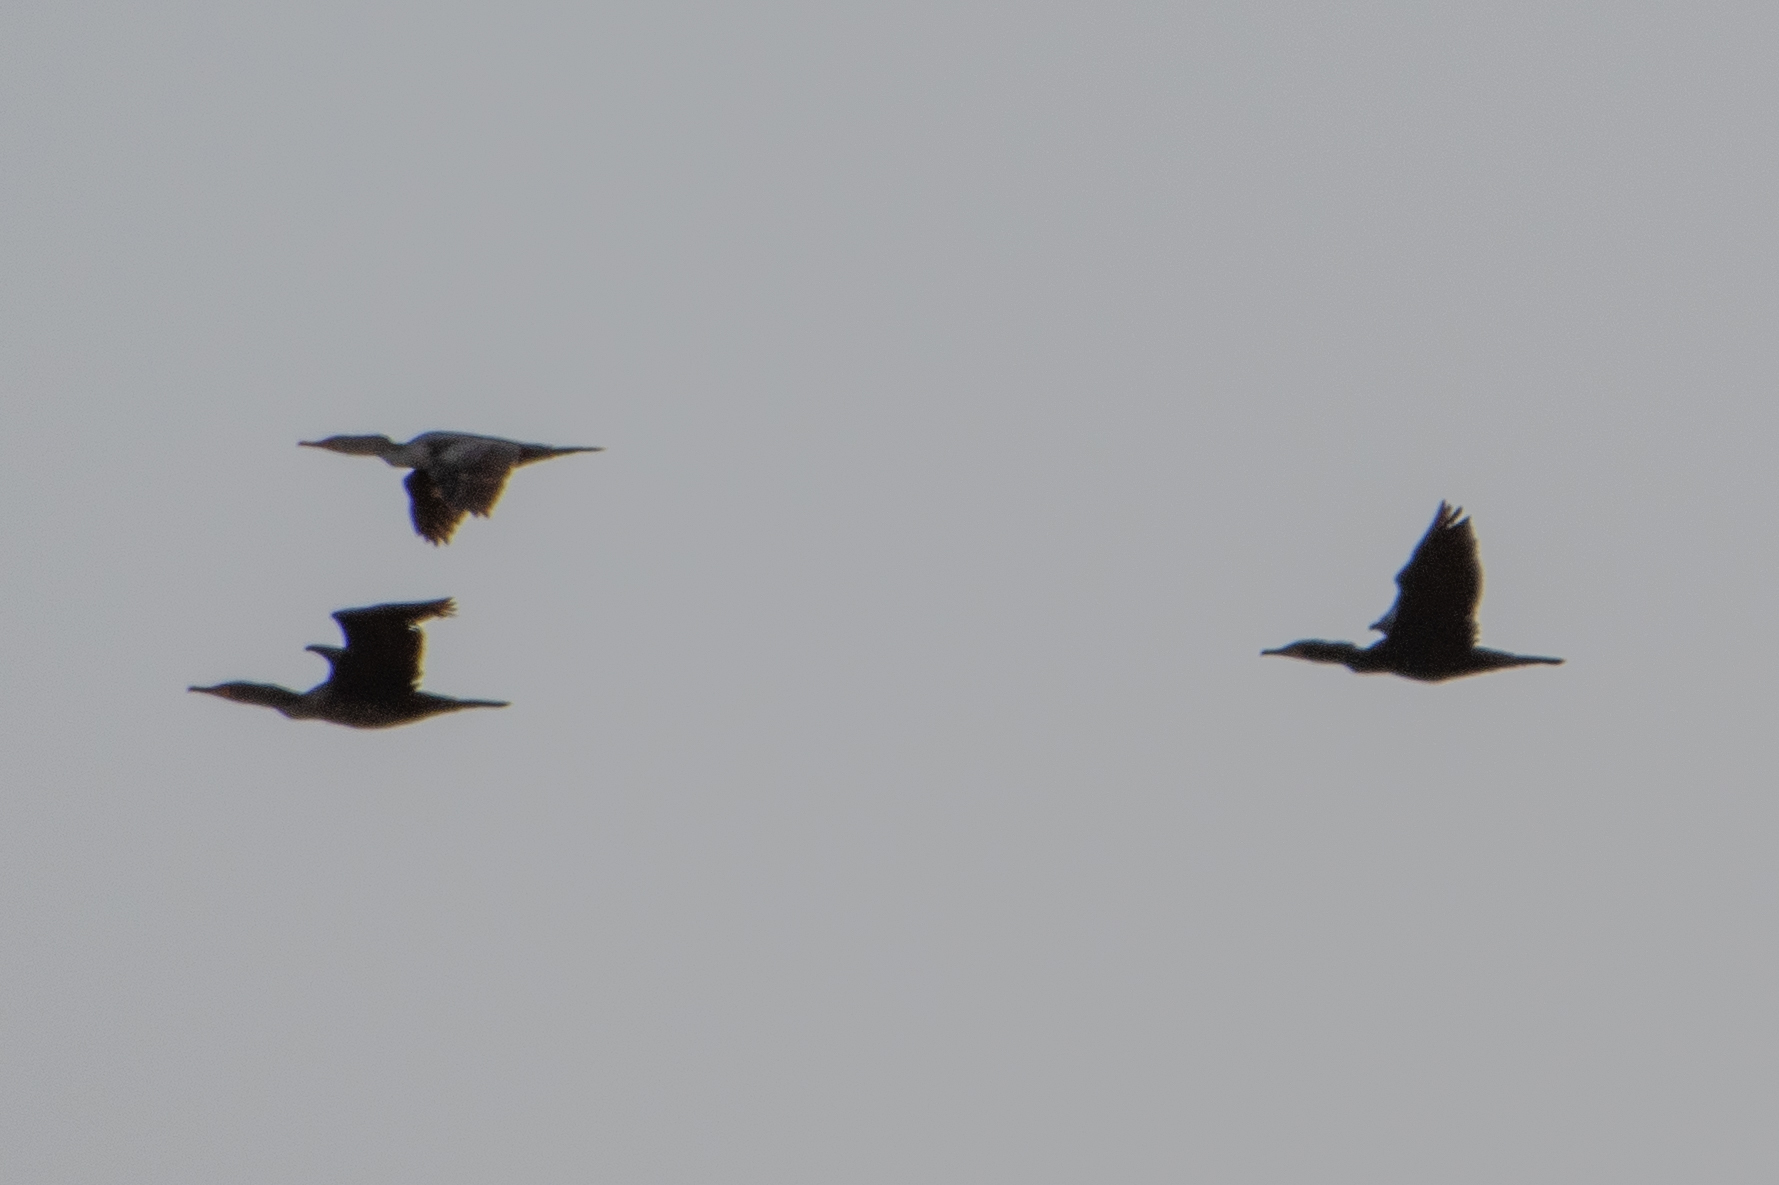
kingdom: Animalia
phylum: Chordata
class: Aves
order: Suliformes
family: Phalacrocoracidae
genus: Phalacrocorax
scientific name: Phalacrocorax auritus
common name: Double-crested cormorant
